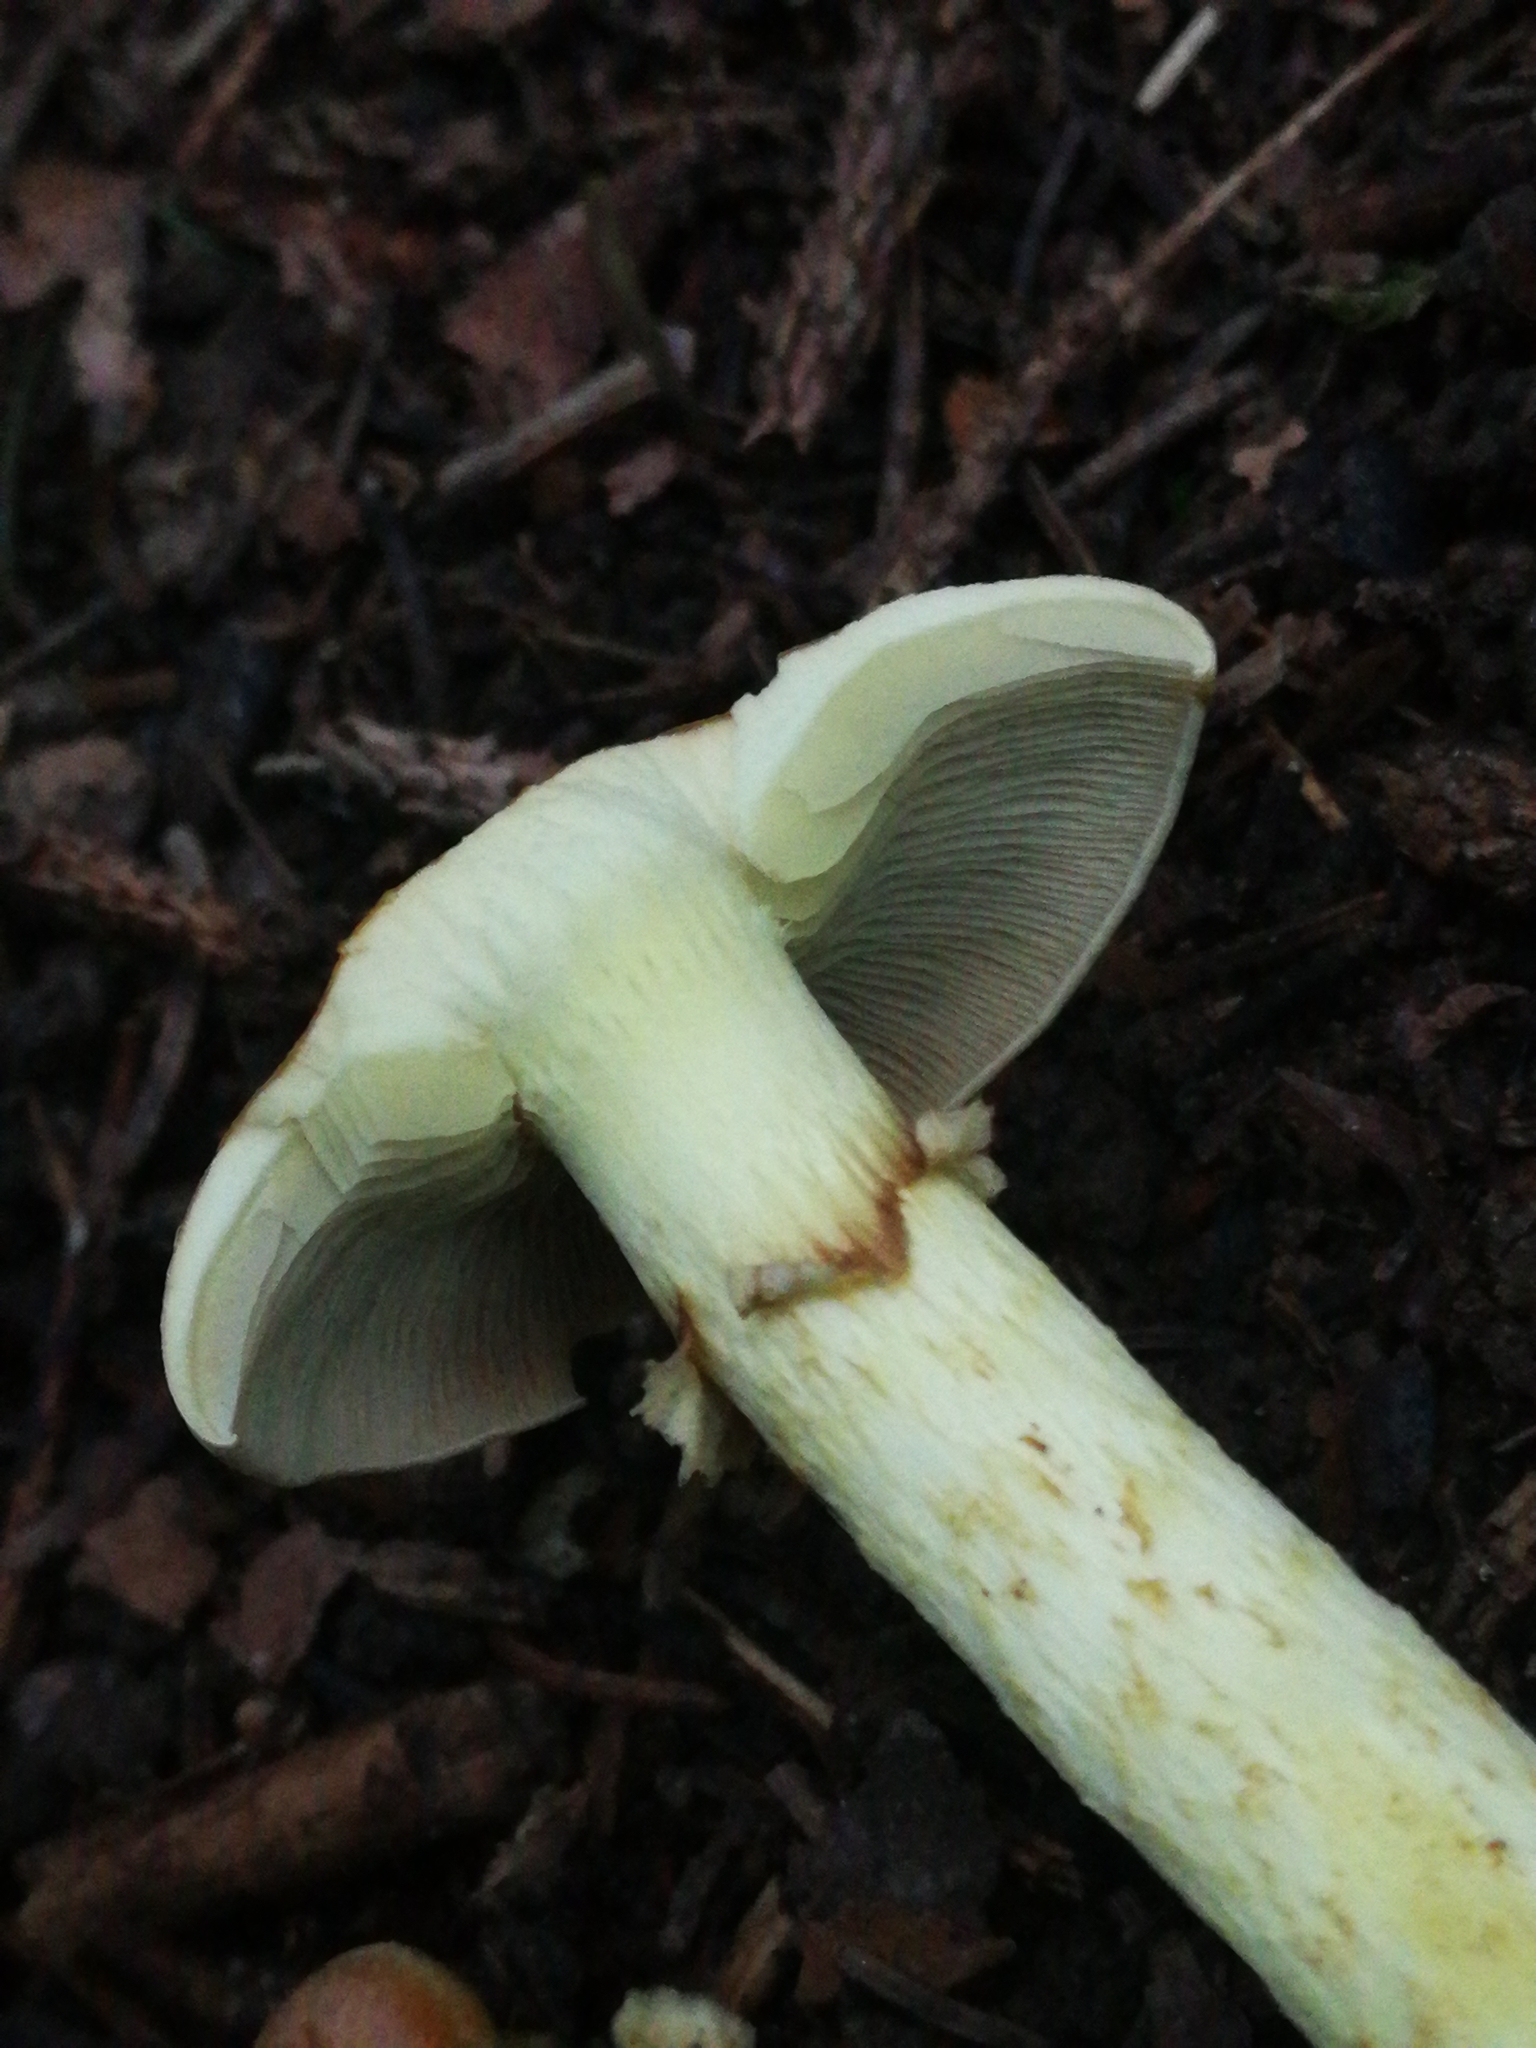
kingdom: Fungi
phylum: Basidiomycota
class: Agaricomycetes
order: Agaricales
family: Strophariaceae
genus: Hypholoma
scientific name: Hypholoma fasciculare
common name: Sulphur tuft
